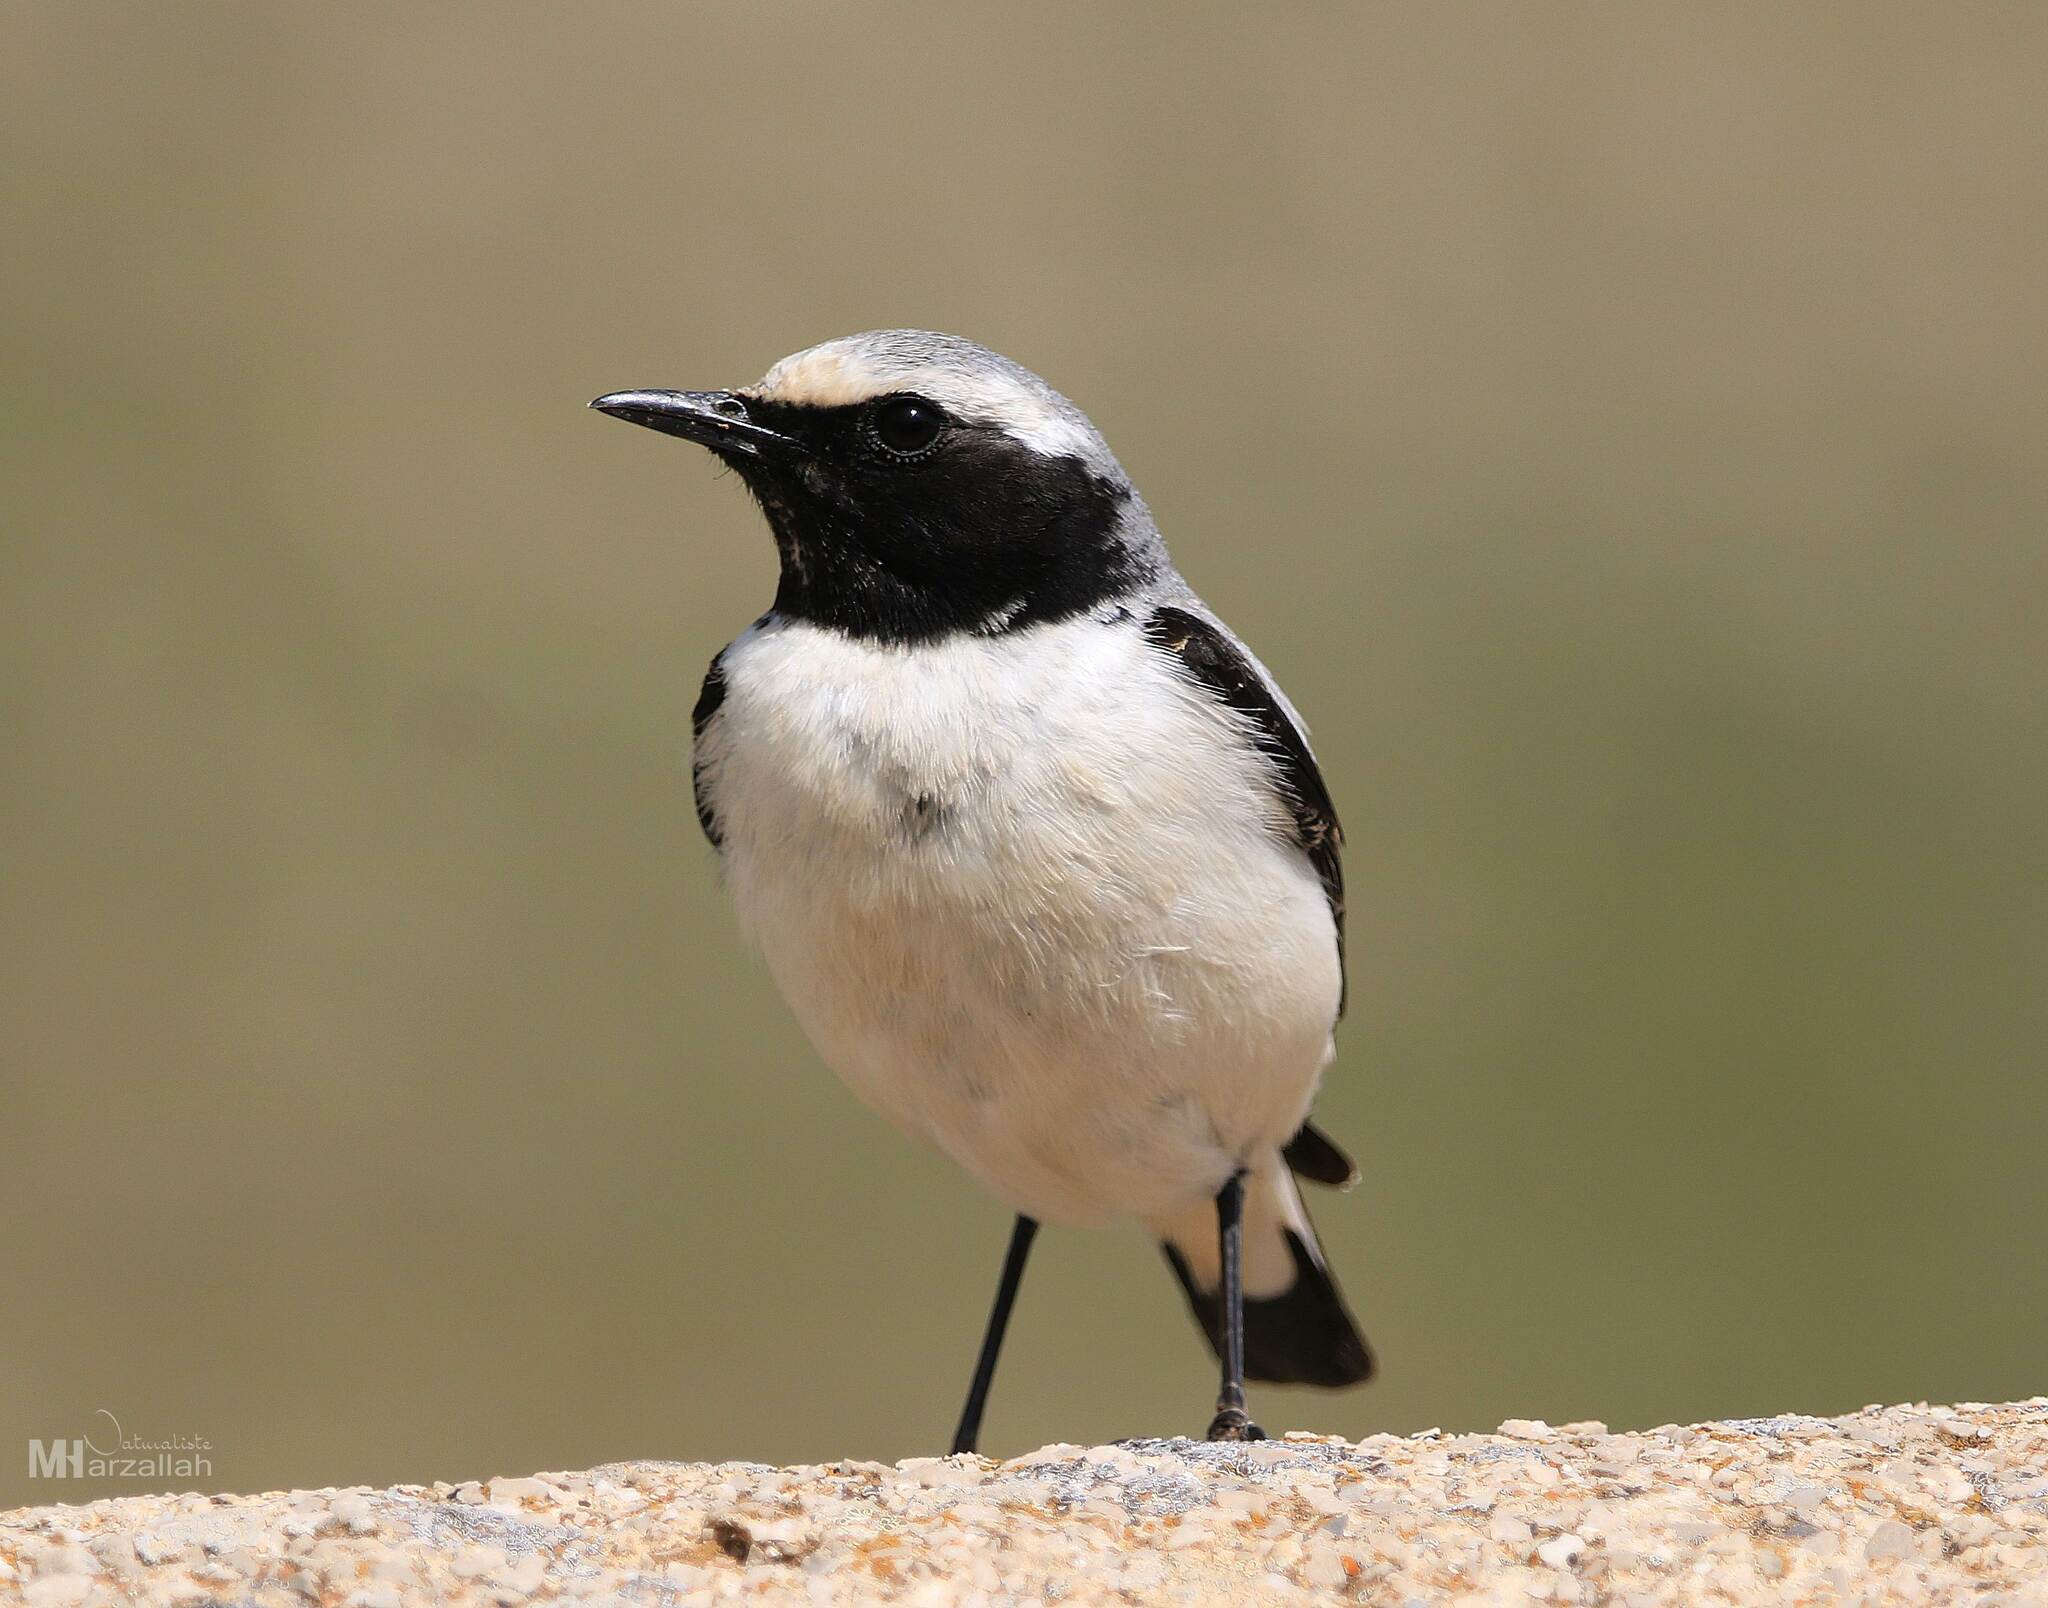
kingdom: Animalia
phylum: Chordata
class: Aves
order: Passeriformes
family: Muscicapidae
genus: Oenanthe
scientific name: Oenanthe oenanthe
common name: Northern wheatear
